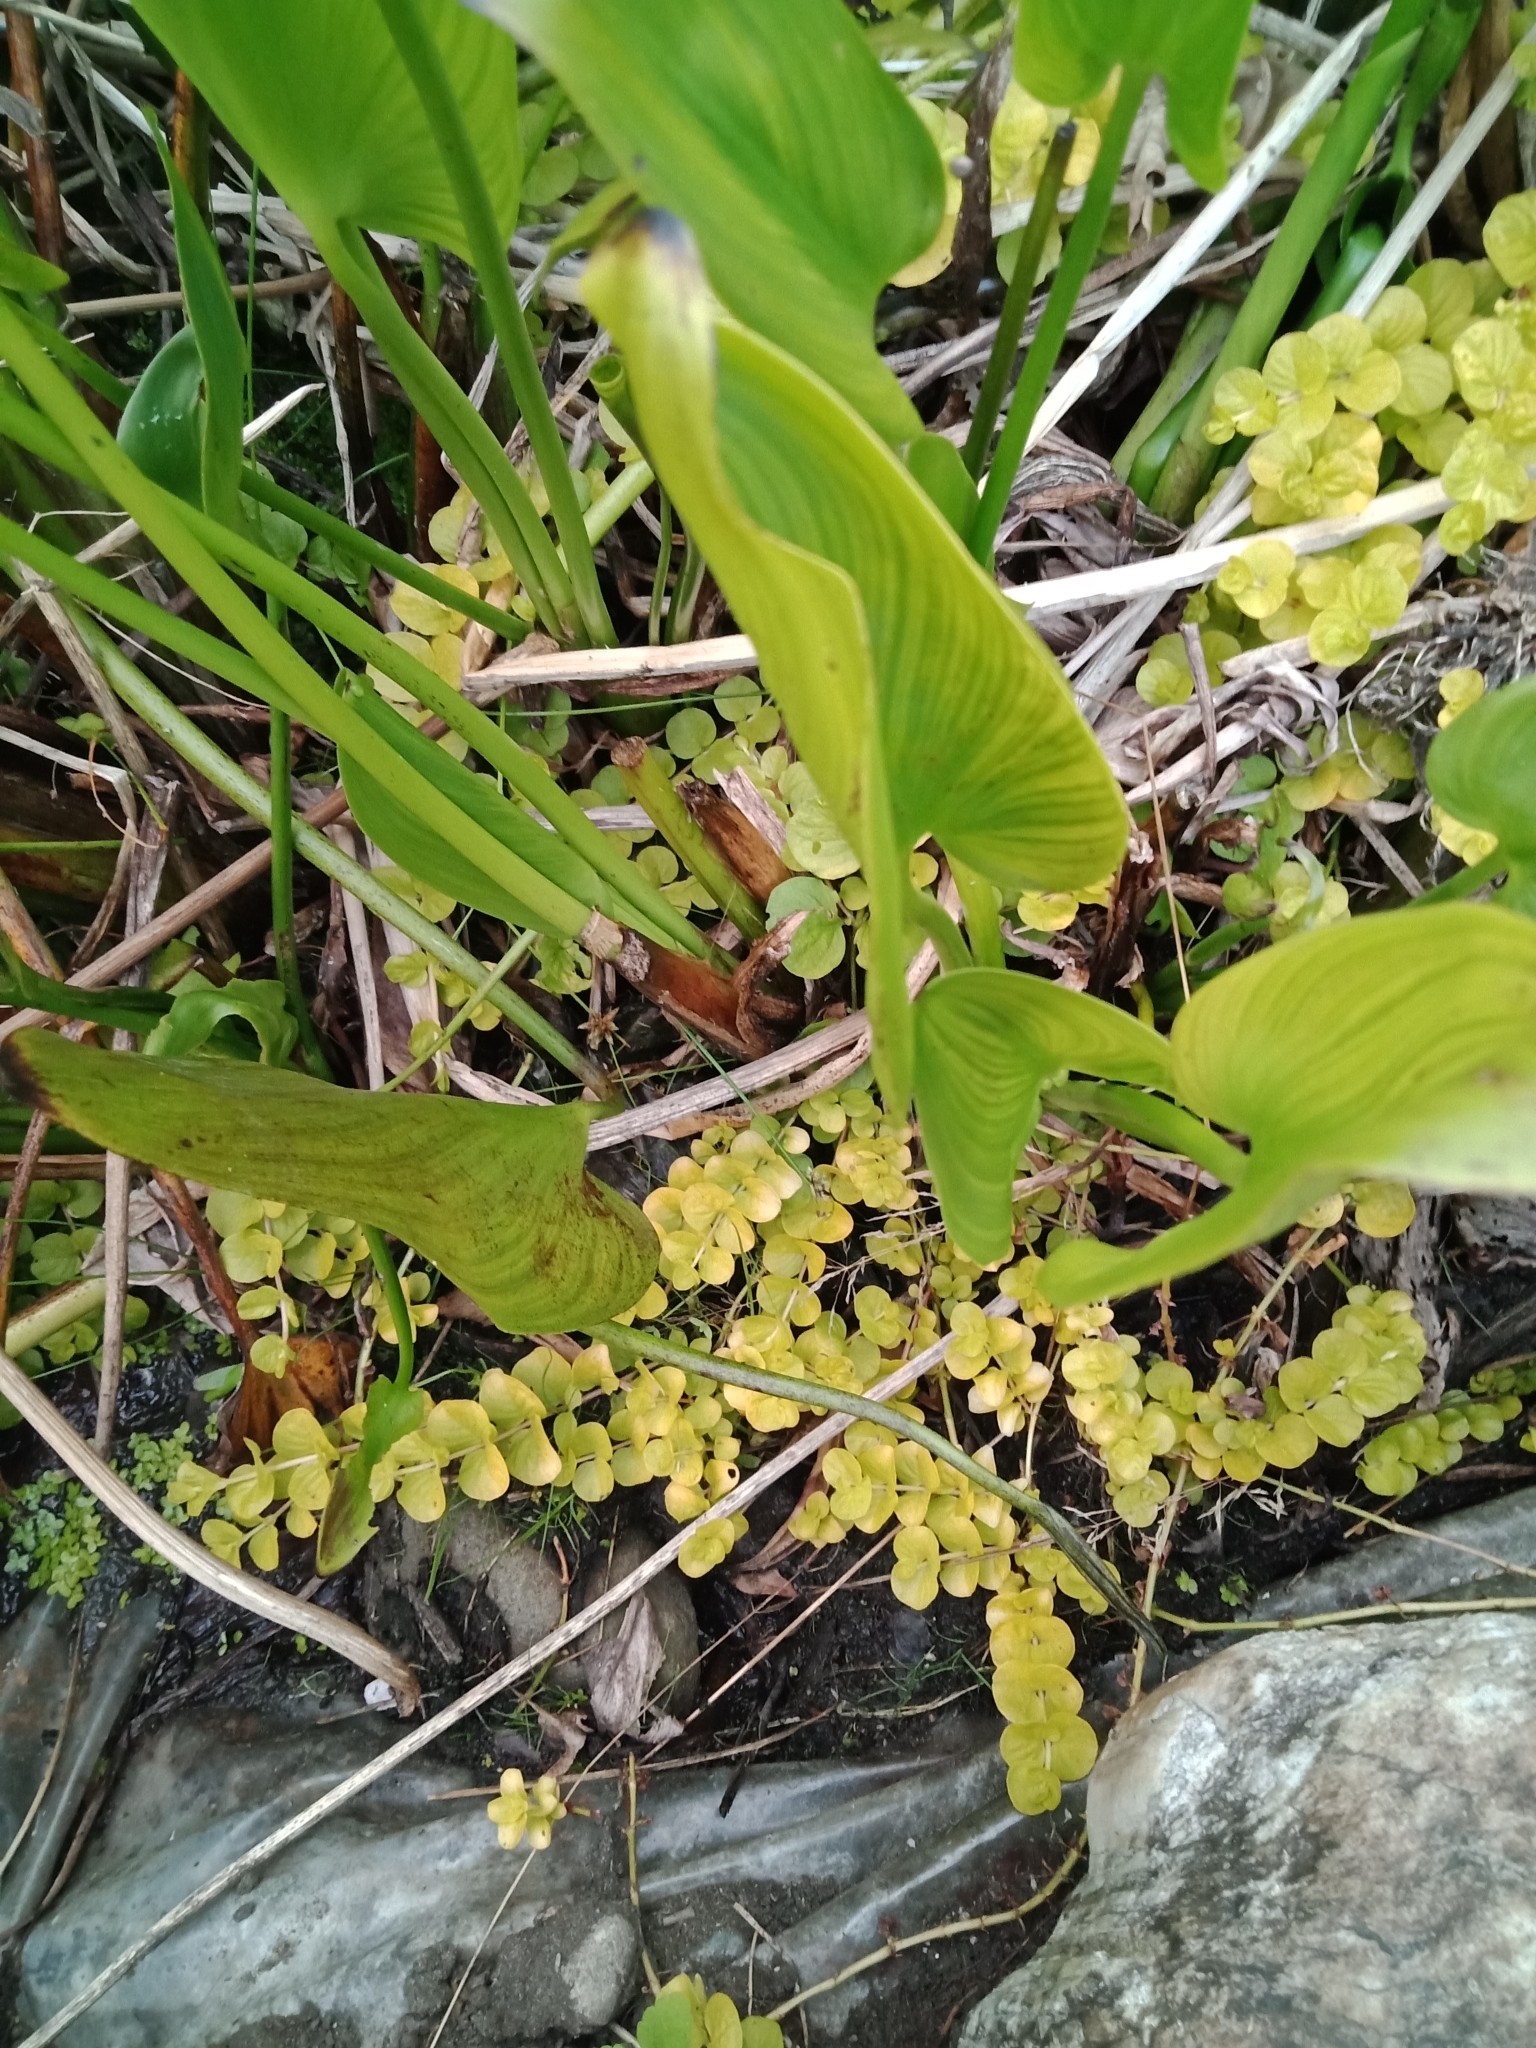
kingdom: Plantae
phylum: Tracheophyta
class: Magnoliopsida
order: Ericales
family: Primulaceae
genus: Lysimachia
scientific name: Lysimachia nummularia
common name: Moneywort
